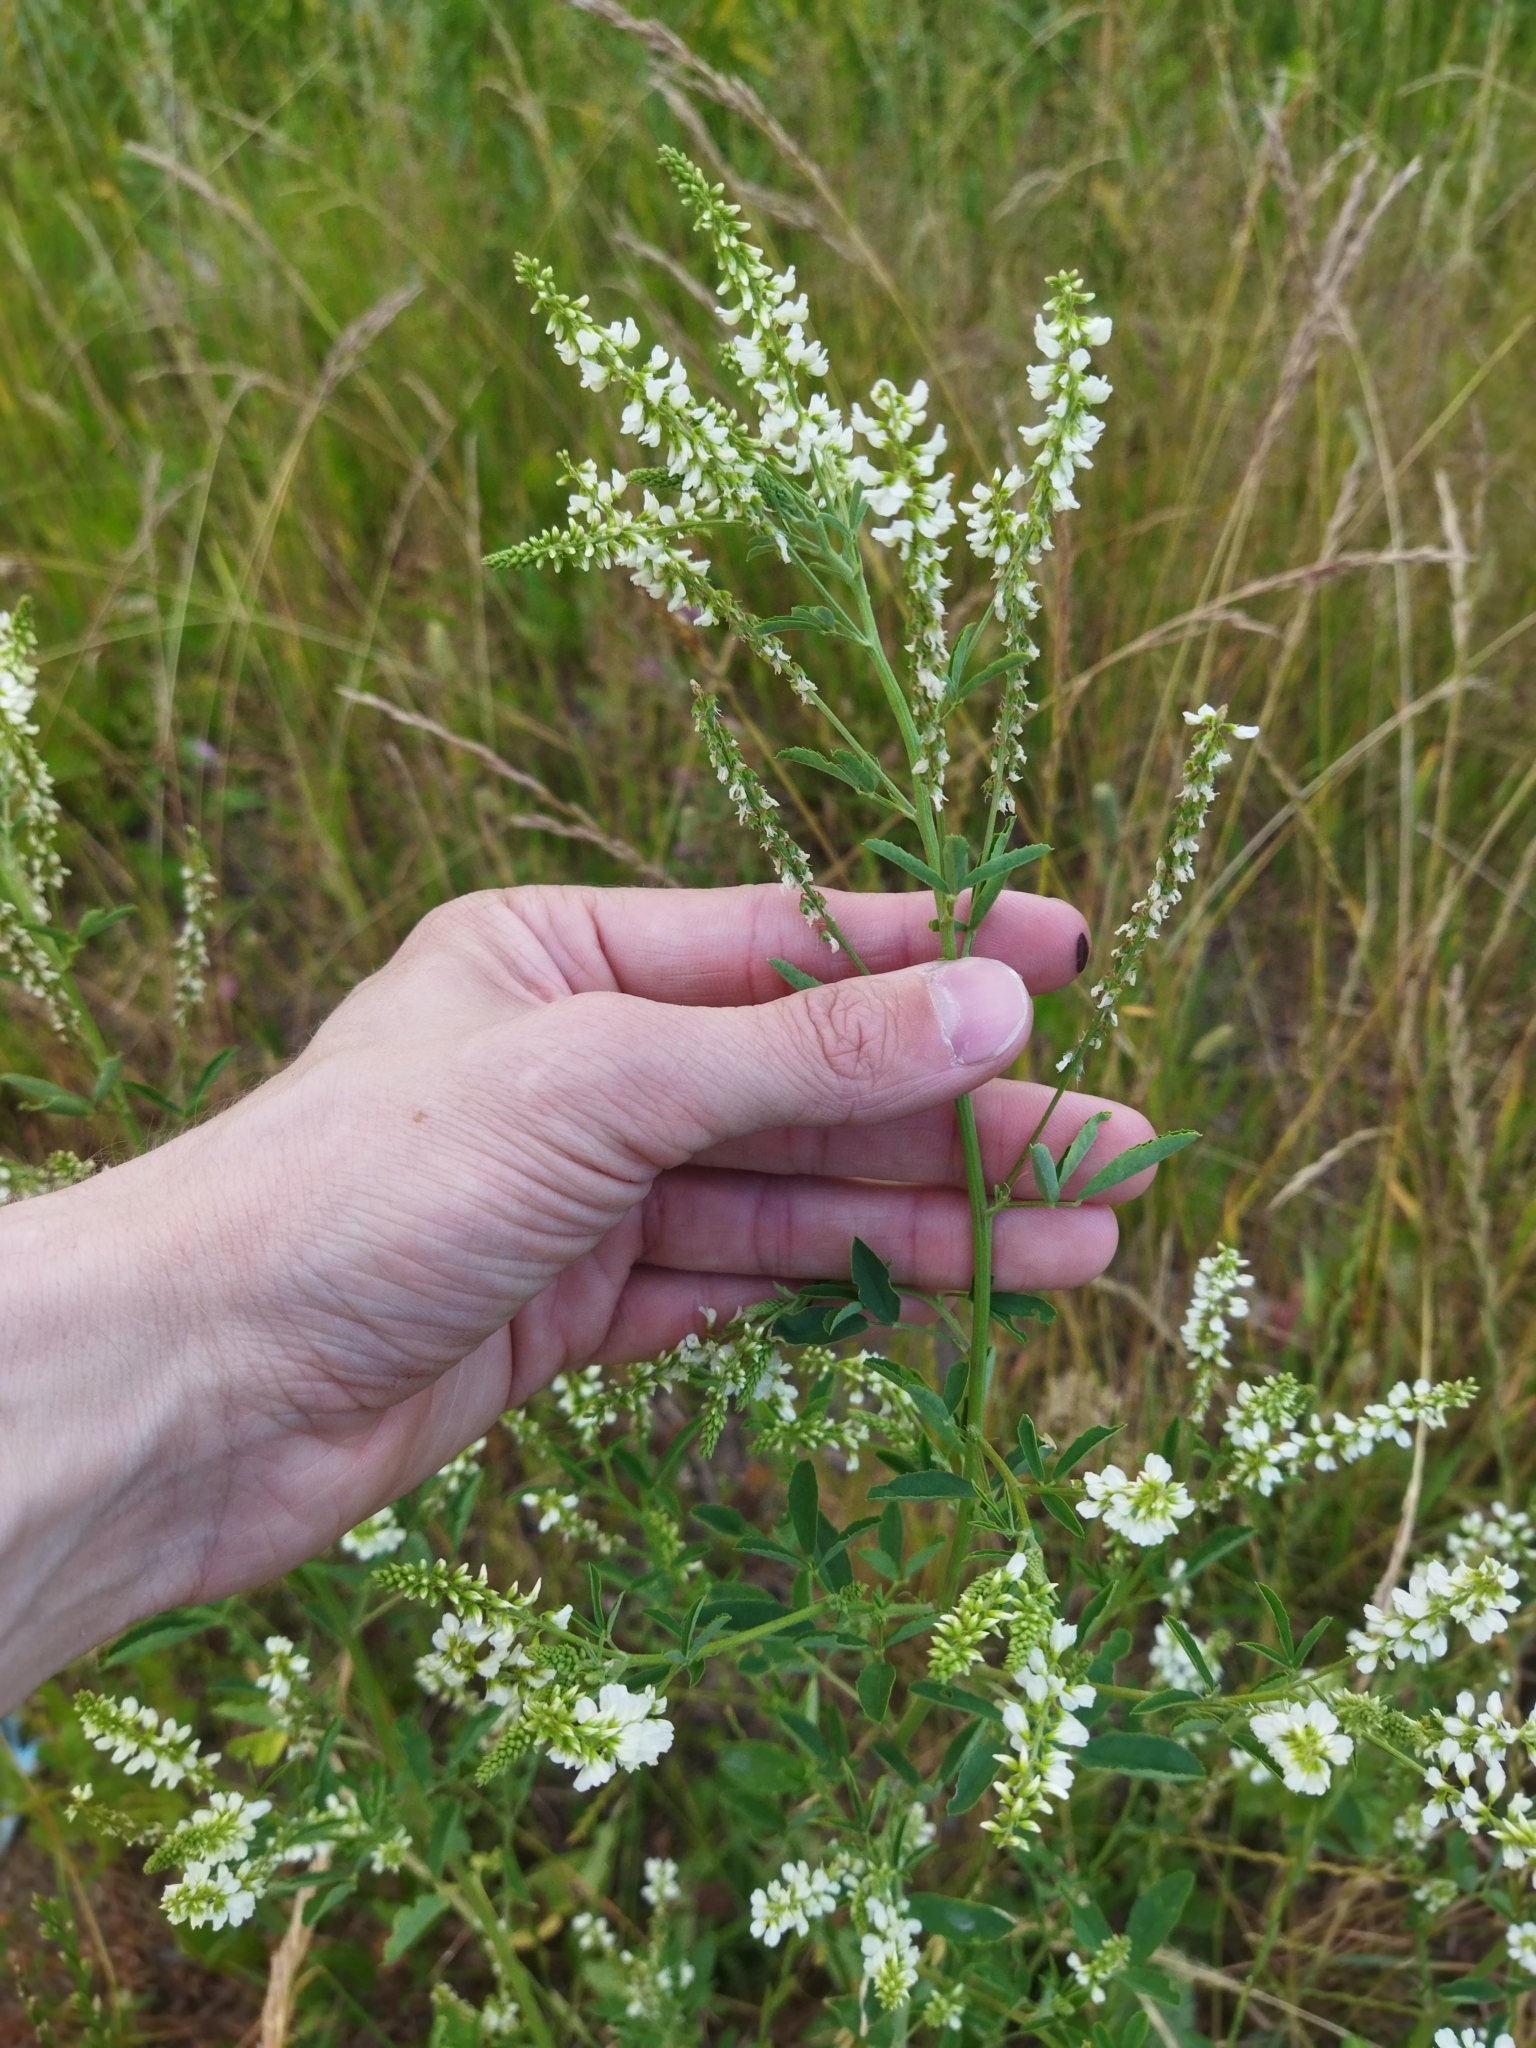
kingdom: Plantae
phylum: Tracheophyta
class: Magnoliopsida
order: Fabales
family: Fabaceae
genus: Melilotus
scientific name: Melilotus albus
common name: White melilot
